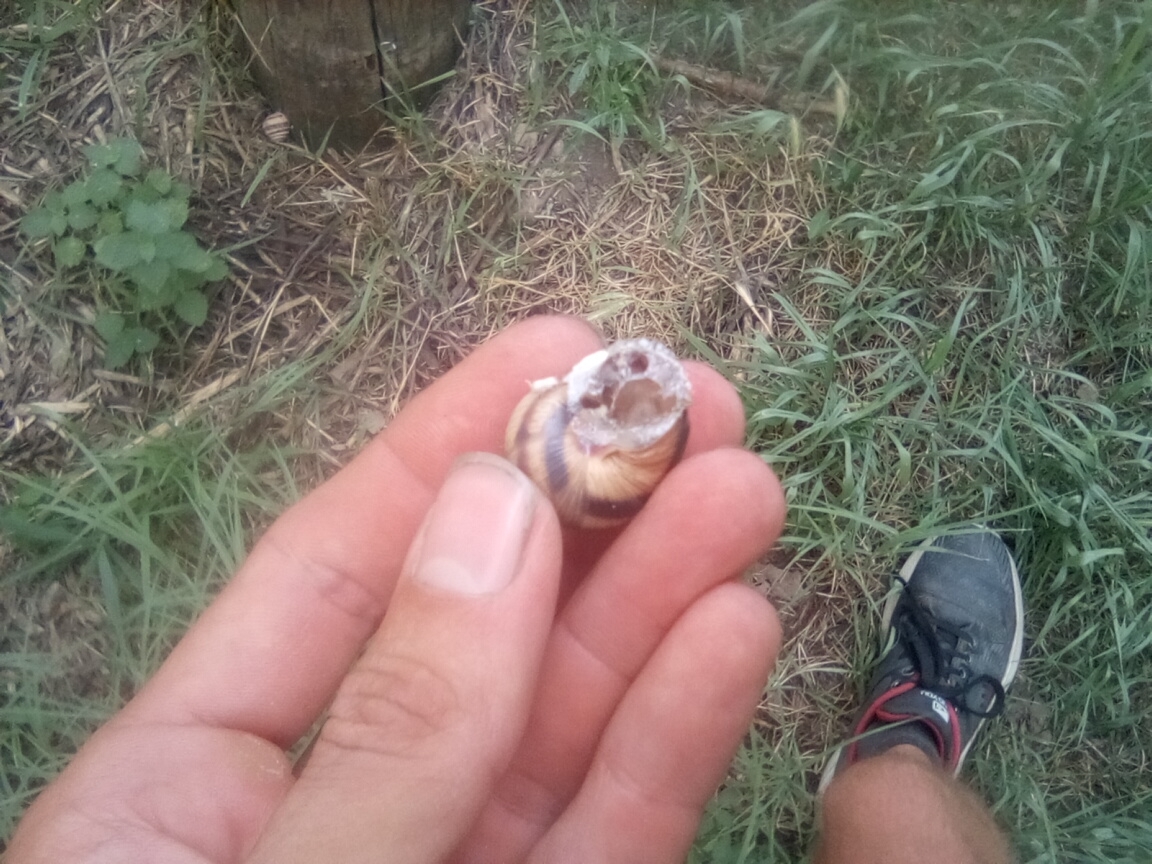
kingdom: Animalia
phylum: Mollusca
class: Gastropoda
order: Stylommatophora
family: Helicidae
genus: Helix
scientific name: Helix albescens
